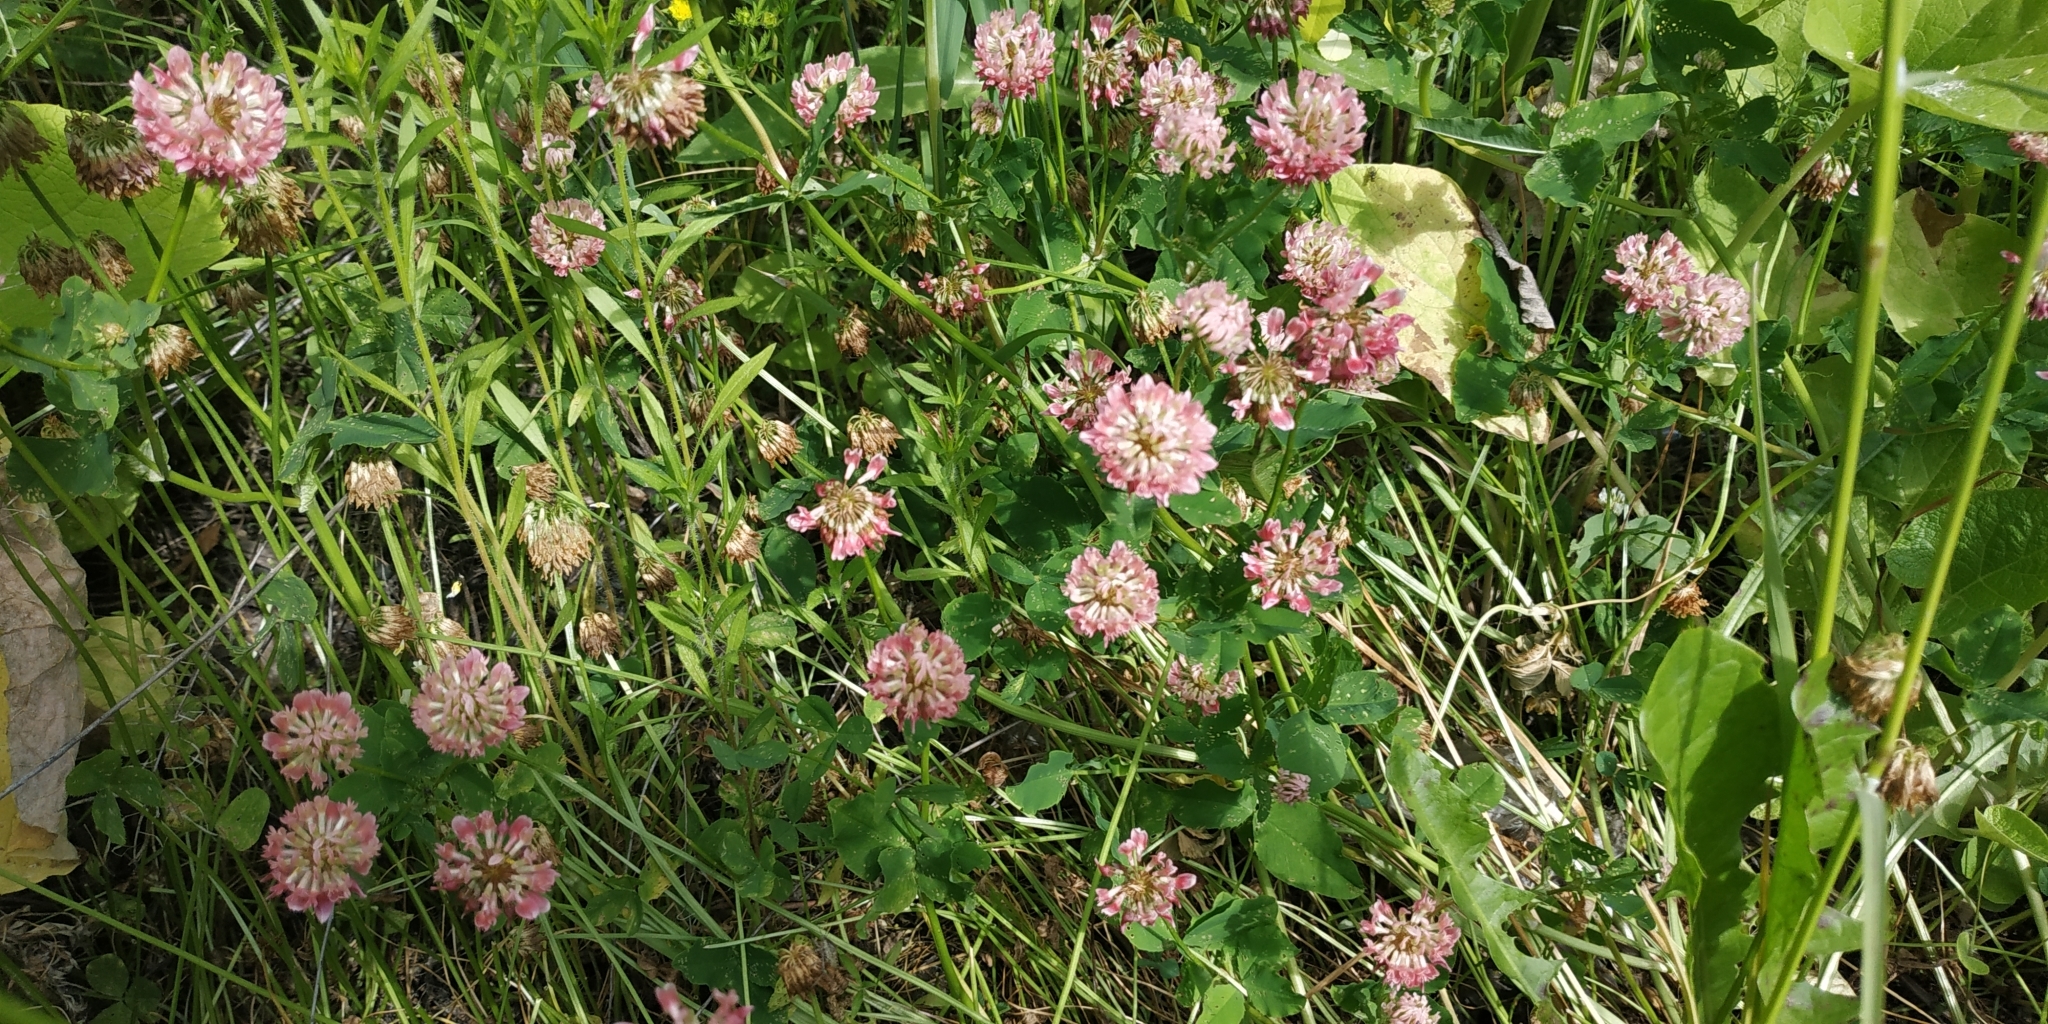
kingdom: Plantae
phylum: Tracheophyta
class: Magnoliopsida
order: Fabales
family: Fabaceae
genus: Trifolium
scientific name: Trifolium hybridum
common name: Alsike clover
